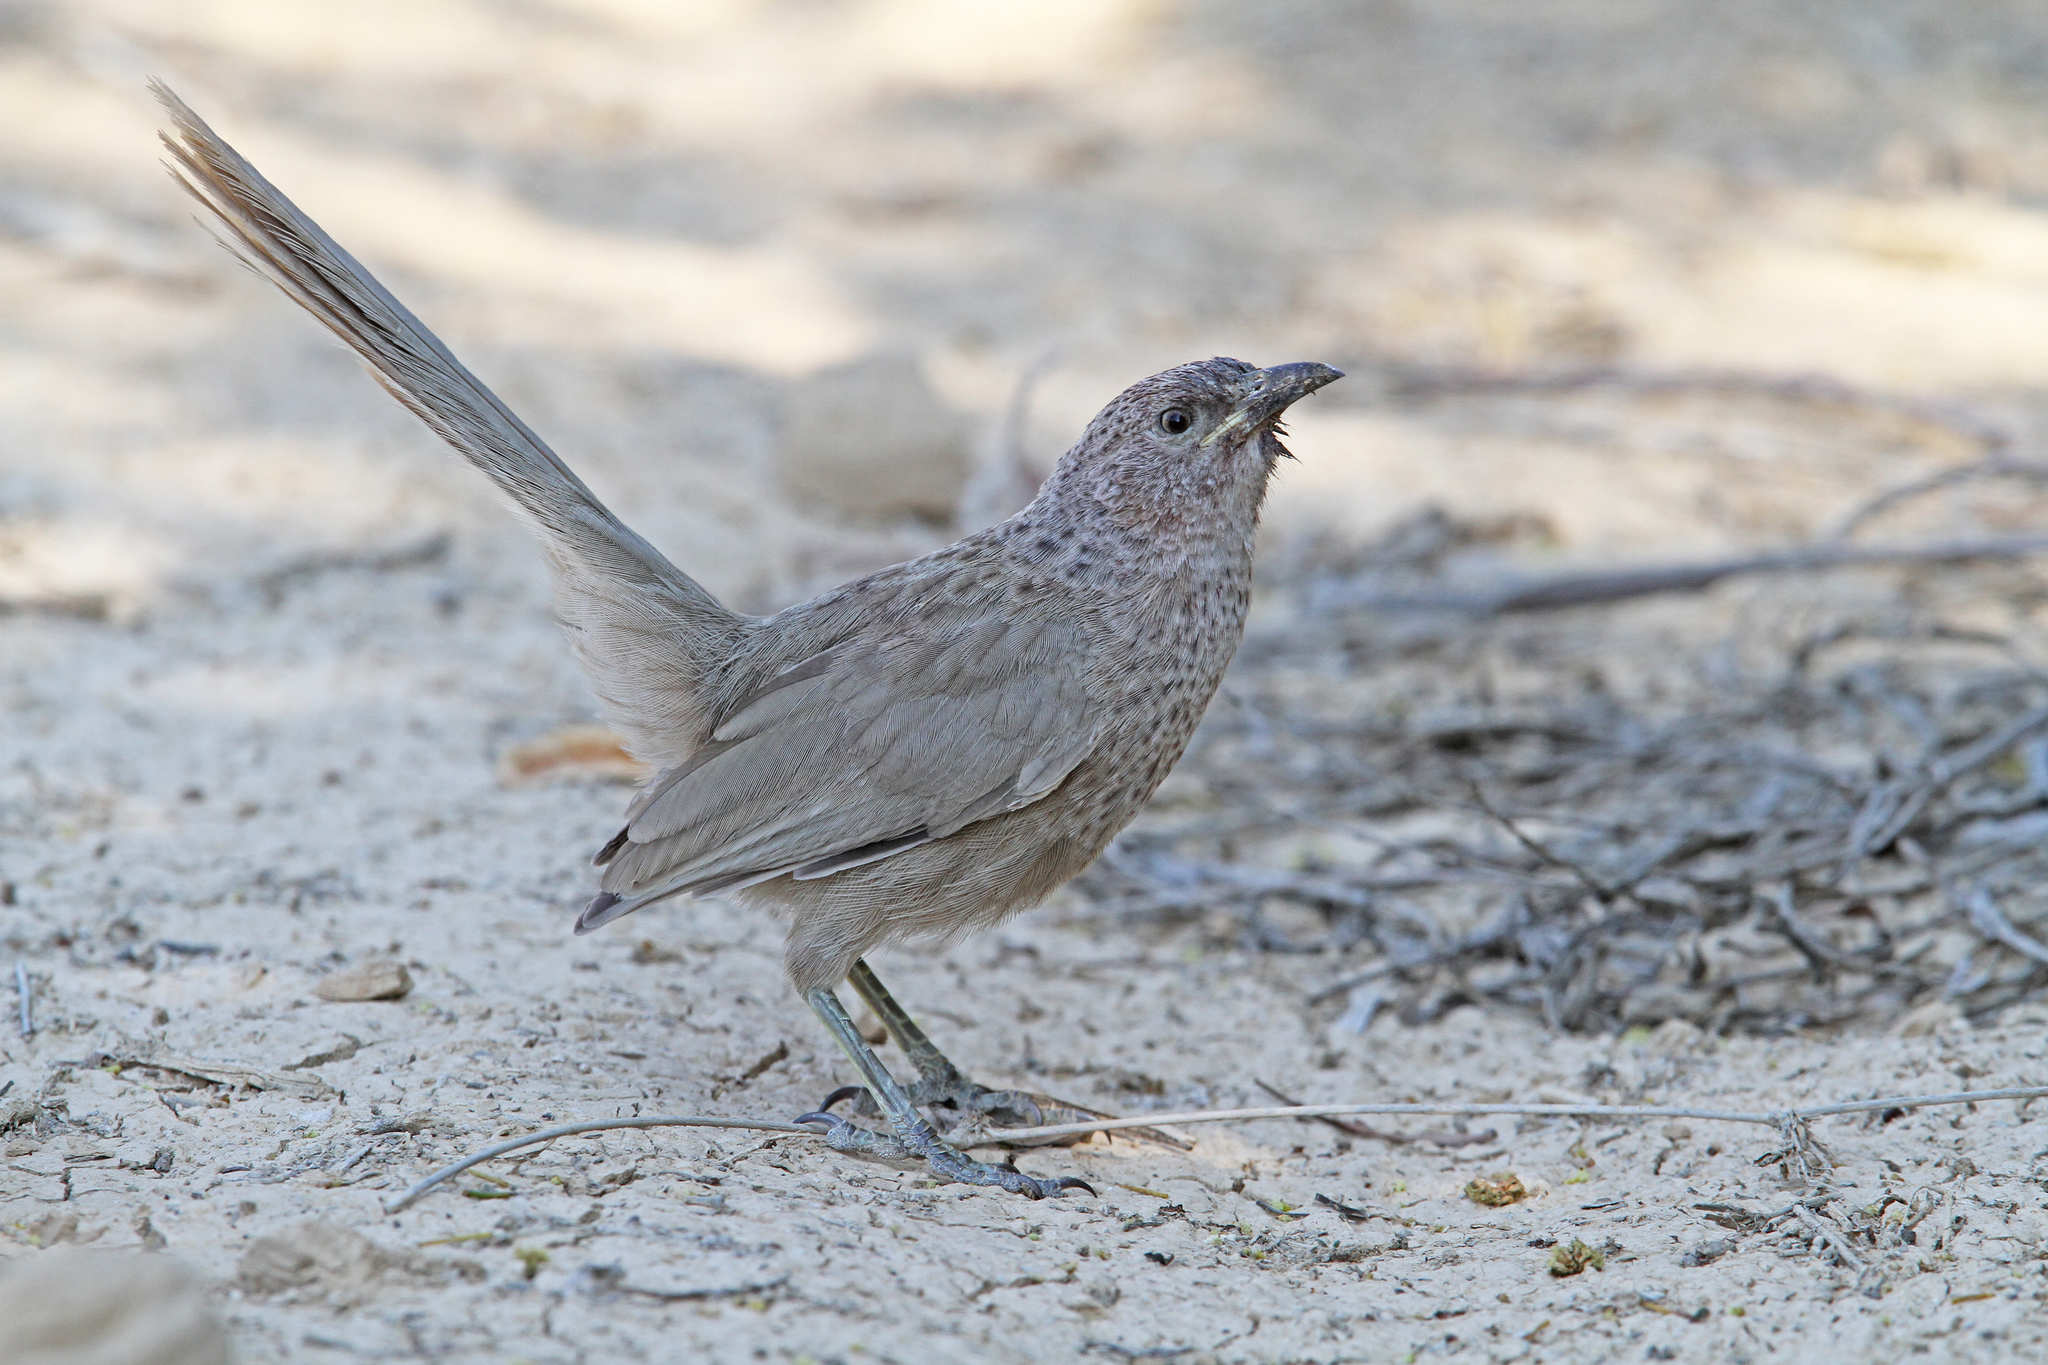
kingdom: Animalia
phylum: Chordata
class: Aves
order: Passeriformes
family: Leiothrichidae
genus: Turdoides
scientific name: Turdoides squamiceps
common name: Arabian babbler
